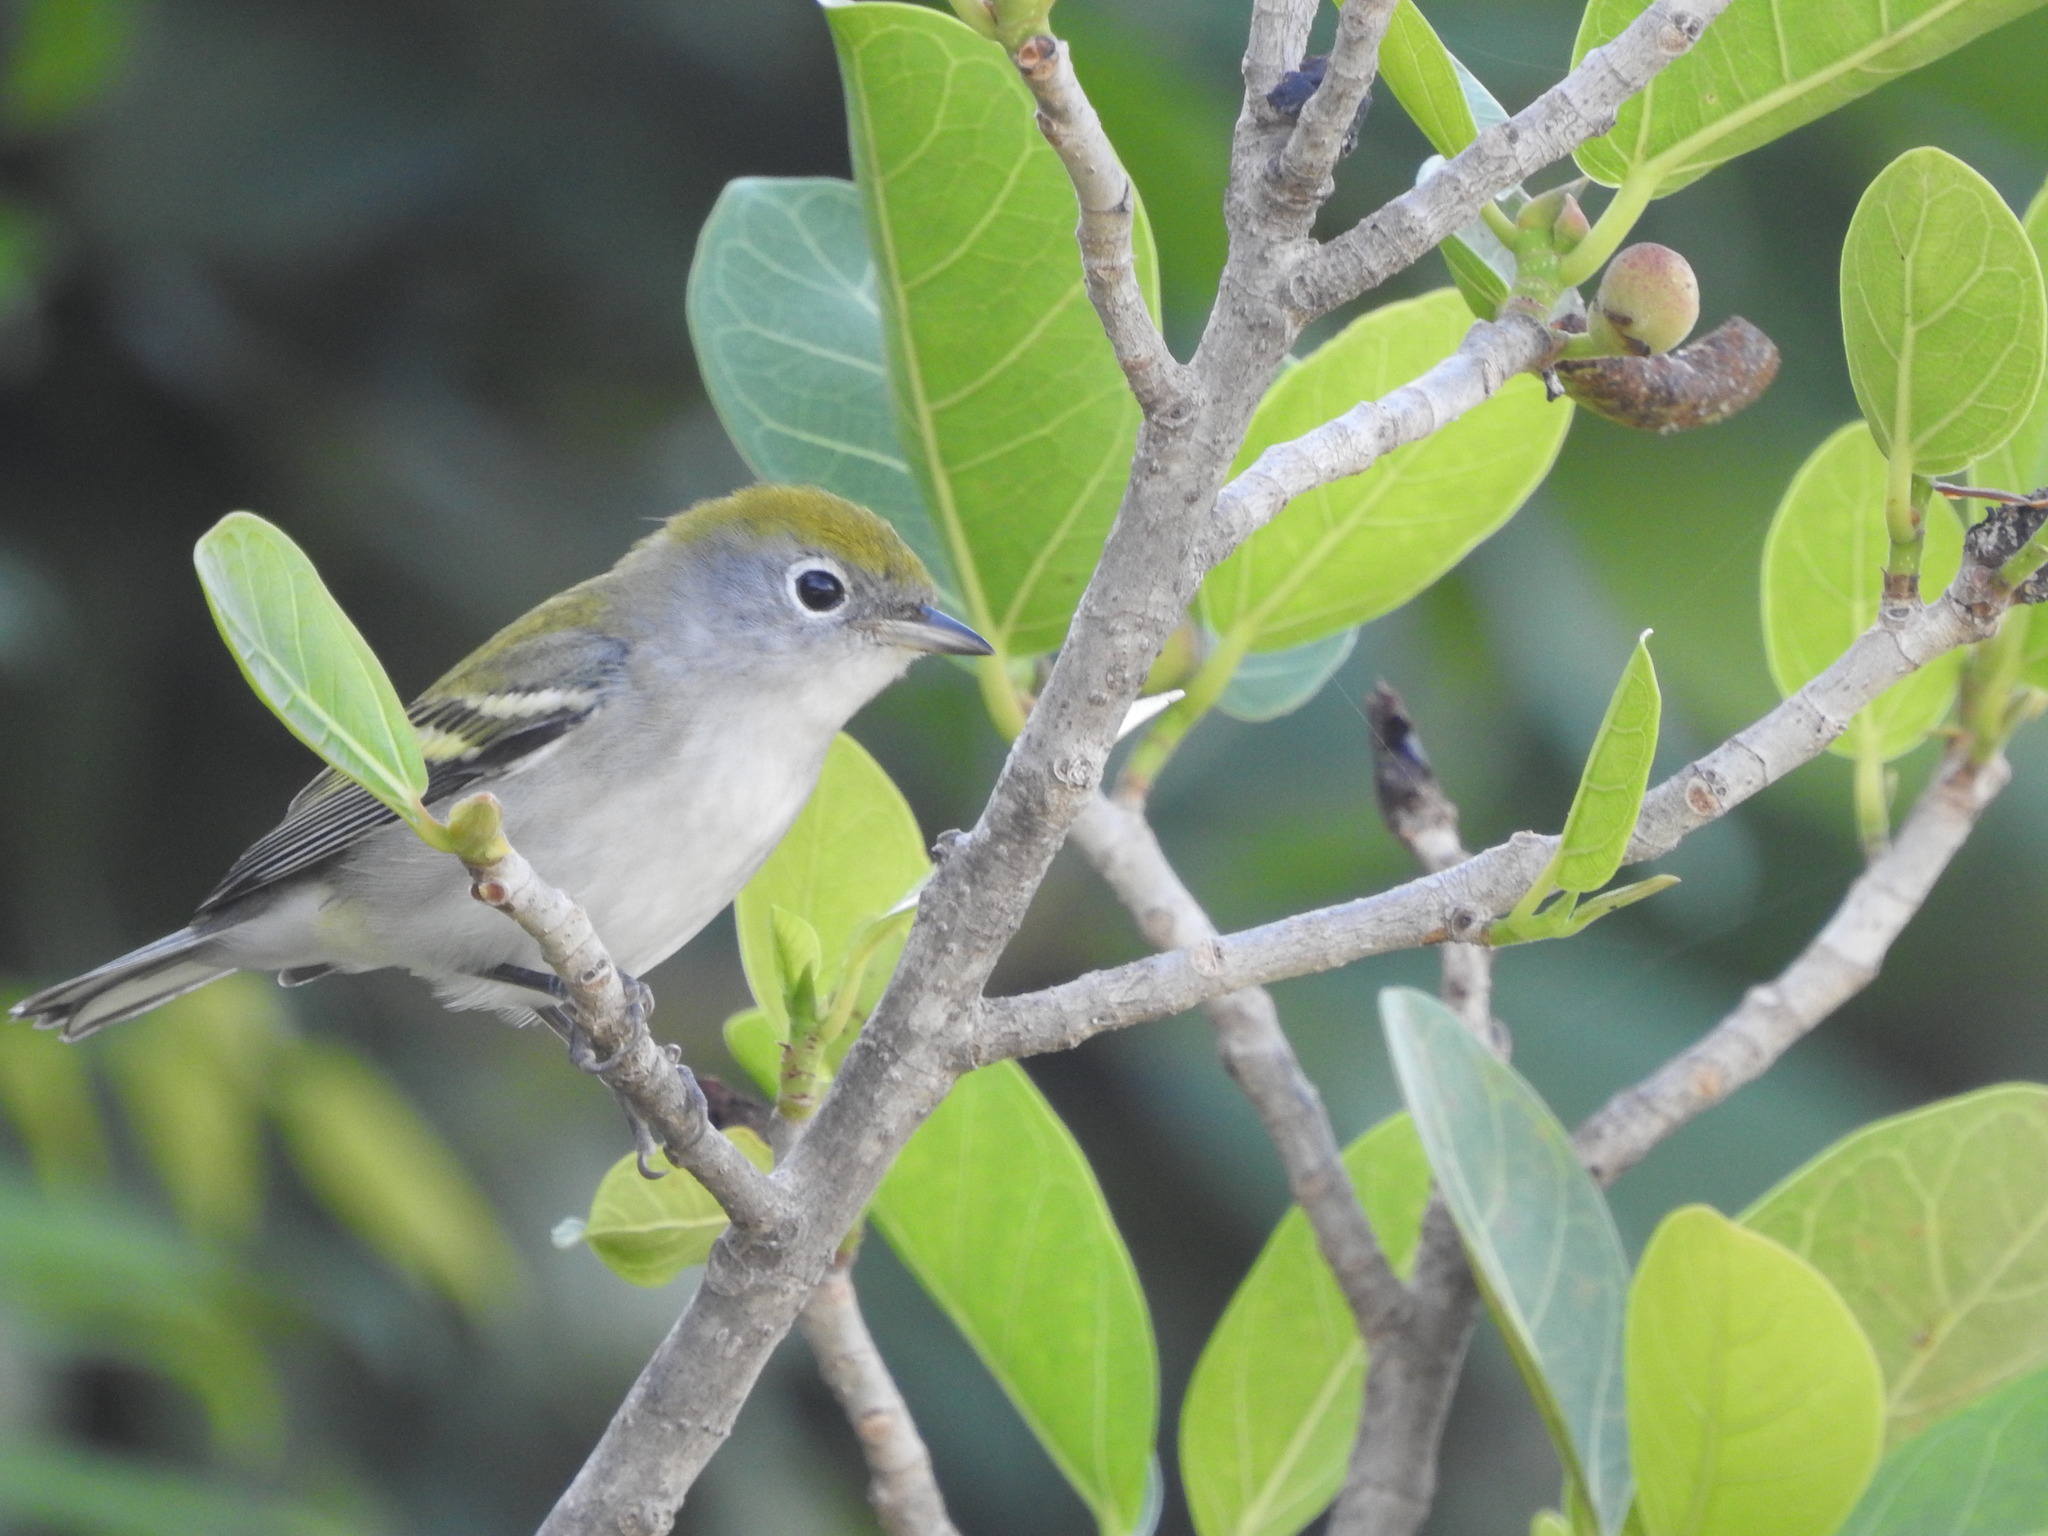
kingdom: Animalia
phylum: Chordata
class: Aves
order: Passeriformes
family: Parulidae
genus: Setophaga
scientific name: Setophaga pensylvanica
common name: Chestnut-sided warbler
